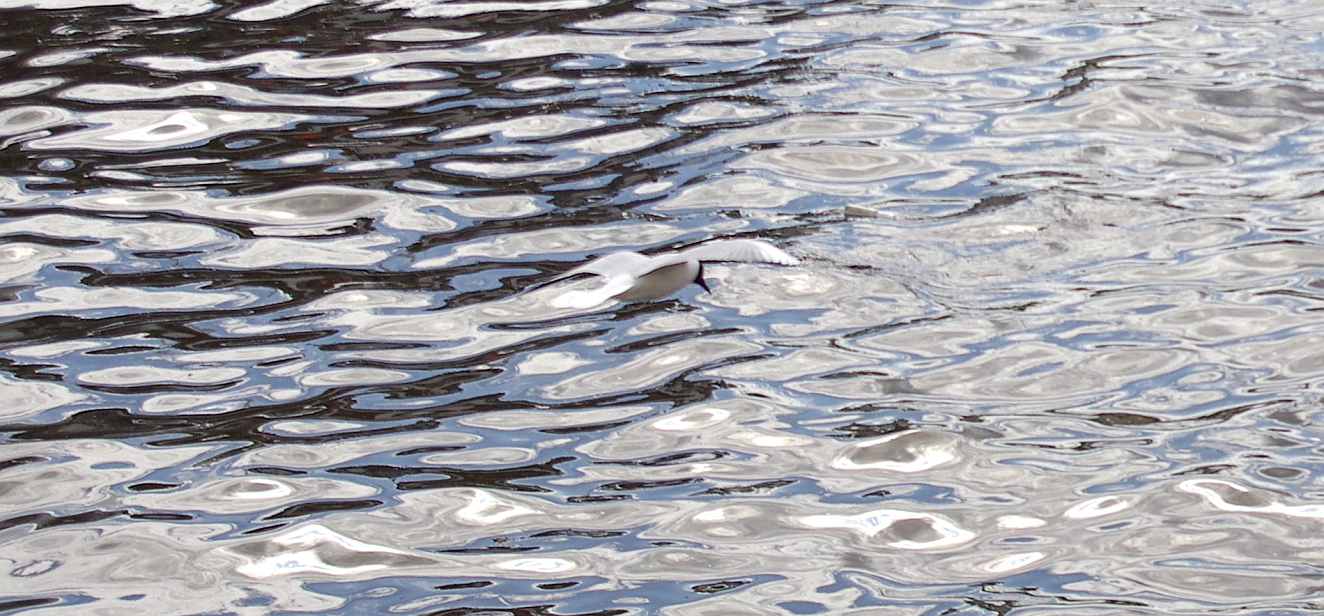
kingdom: Animalia
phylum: Chordata
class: Aves
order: Charadriiformes
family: Laridae
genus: Chroicocephalus
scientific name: Chroicocephalus ridibundus
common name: Black-headed gull
